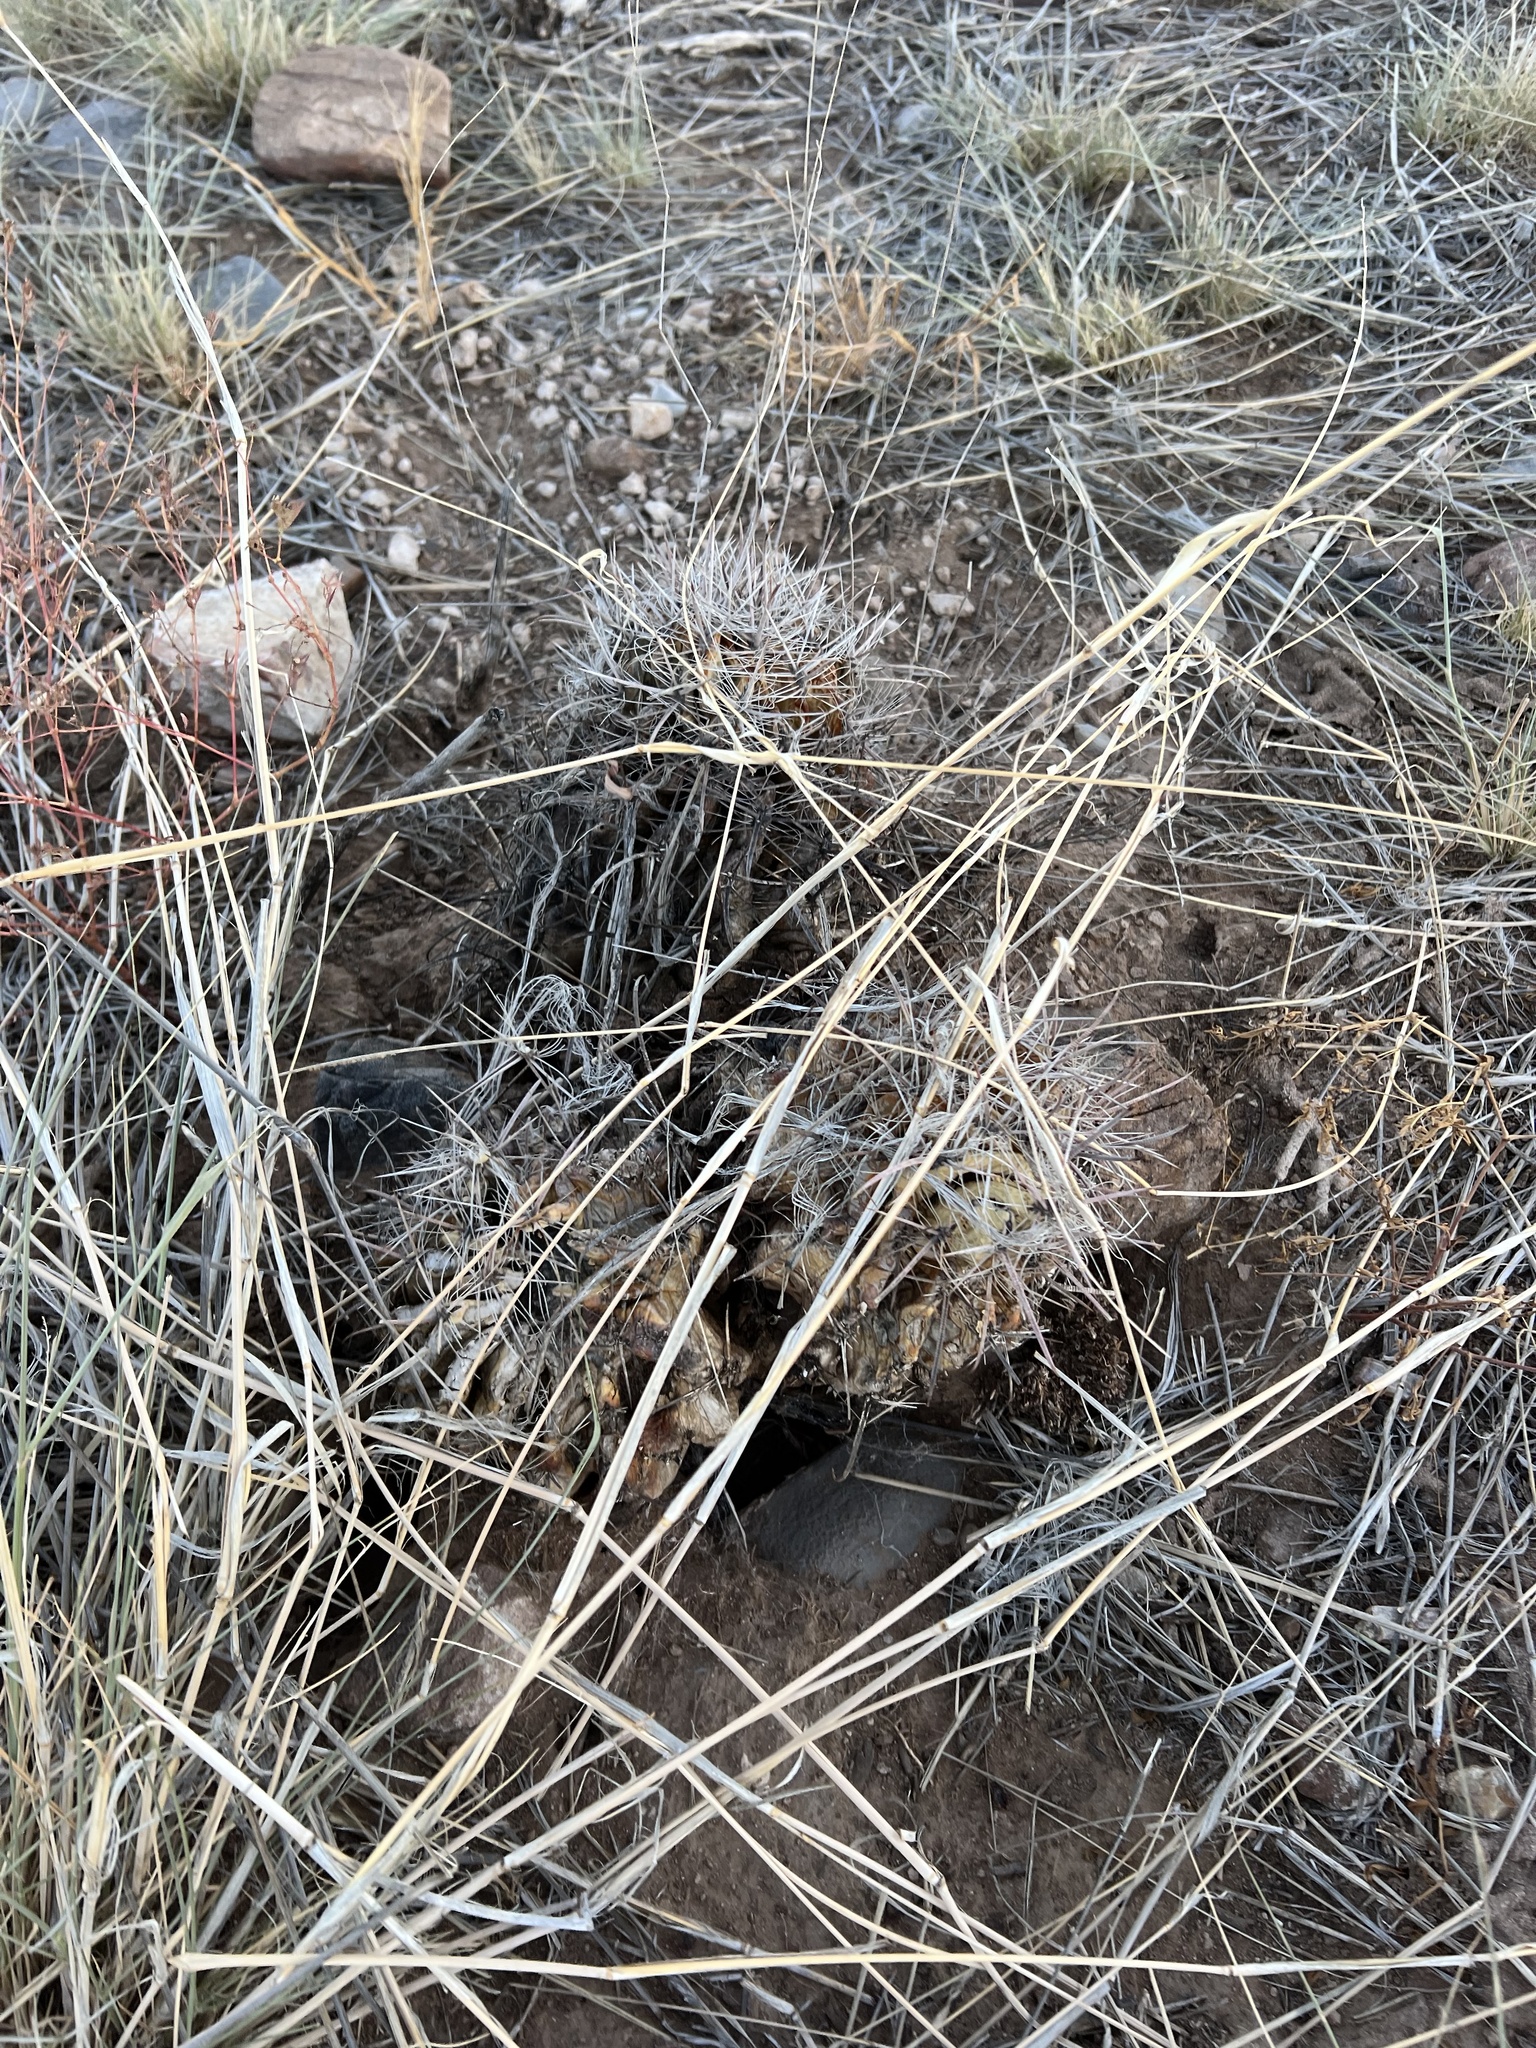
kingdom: Plantae
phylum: Tracheophyta
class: Magnoliopsida
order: Caryophyllales
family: Cactaceae
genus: Ferocactus
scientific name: Ferocactus wislizeni
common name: Candy barrel cactus
